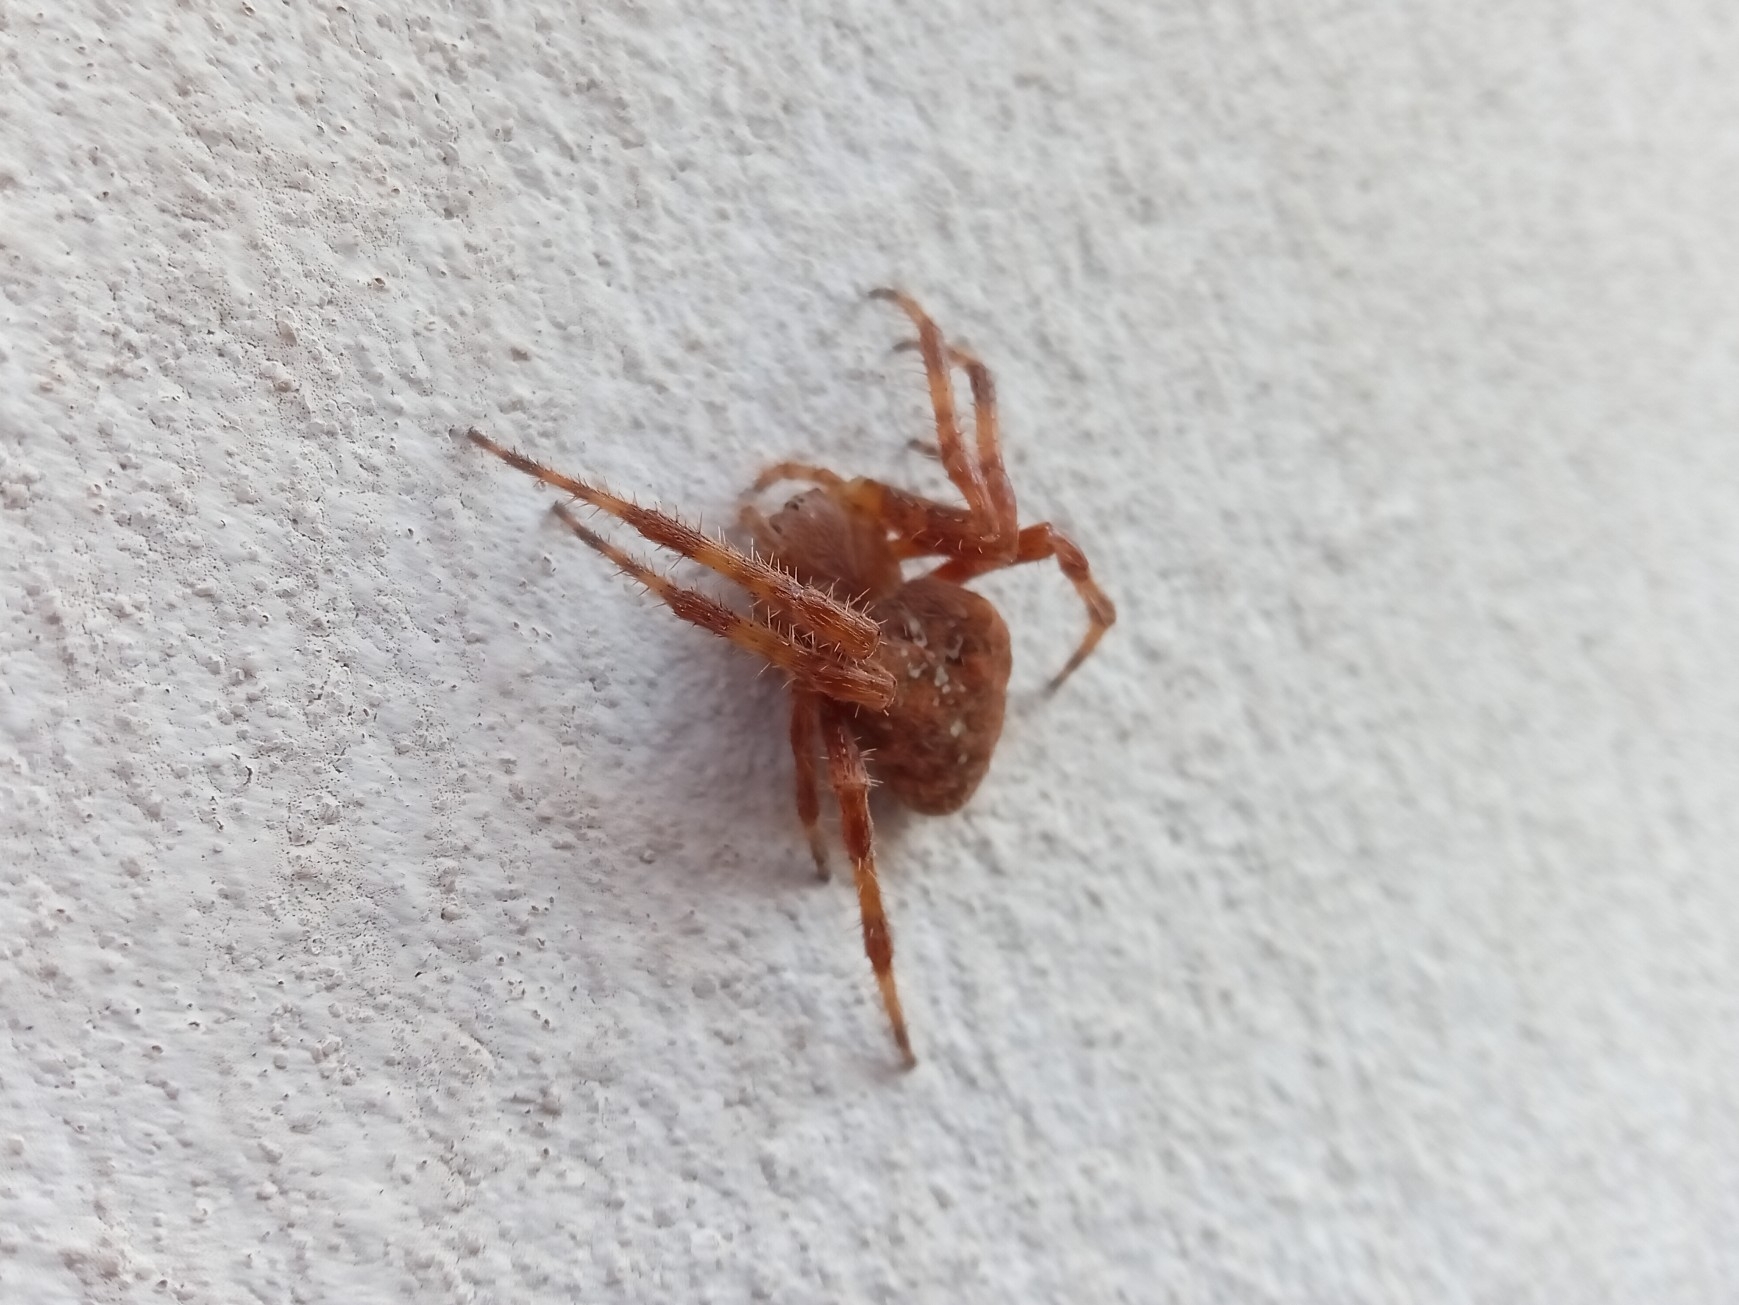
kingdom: Animalia
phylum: Arthropoda
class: Arachnida
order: Araneae
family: Araneidae
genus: Araneus
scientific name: Araneus diadematus
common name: Cross orbweaver
